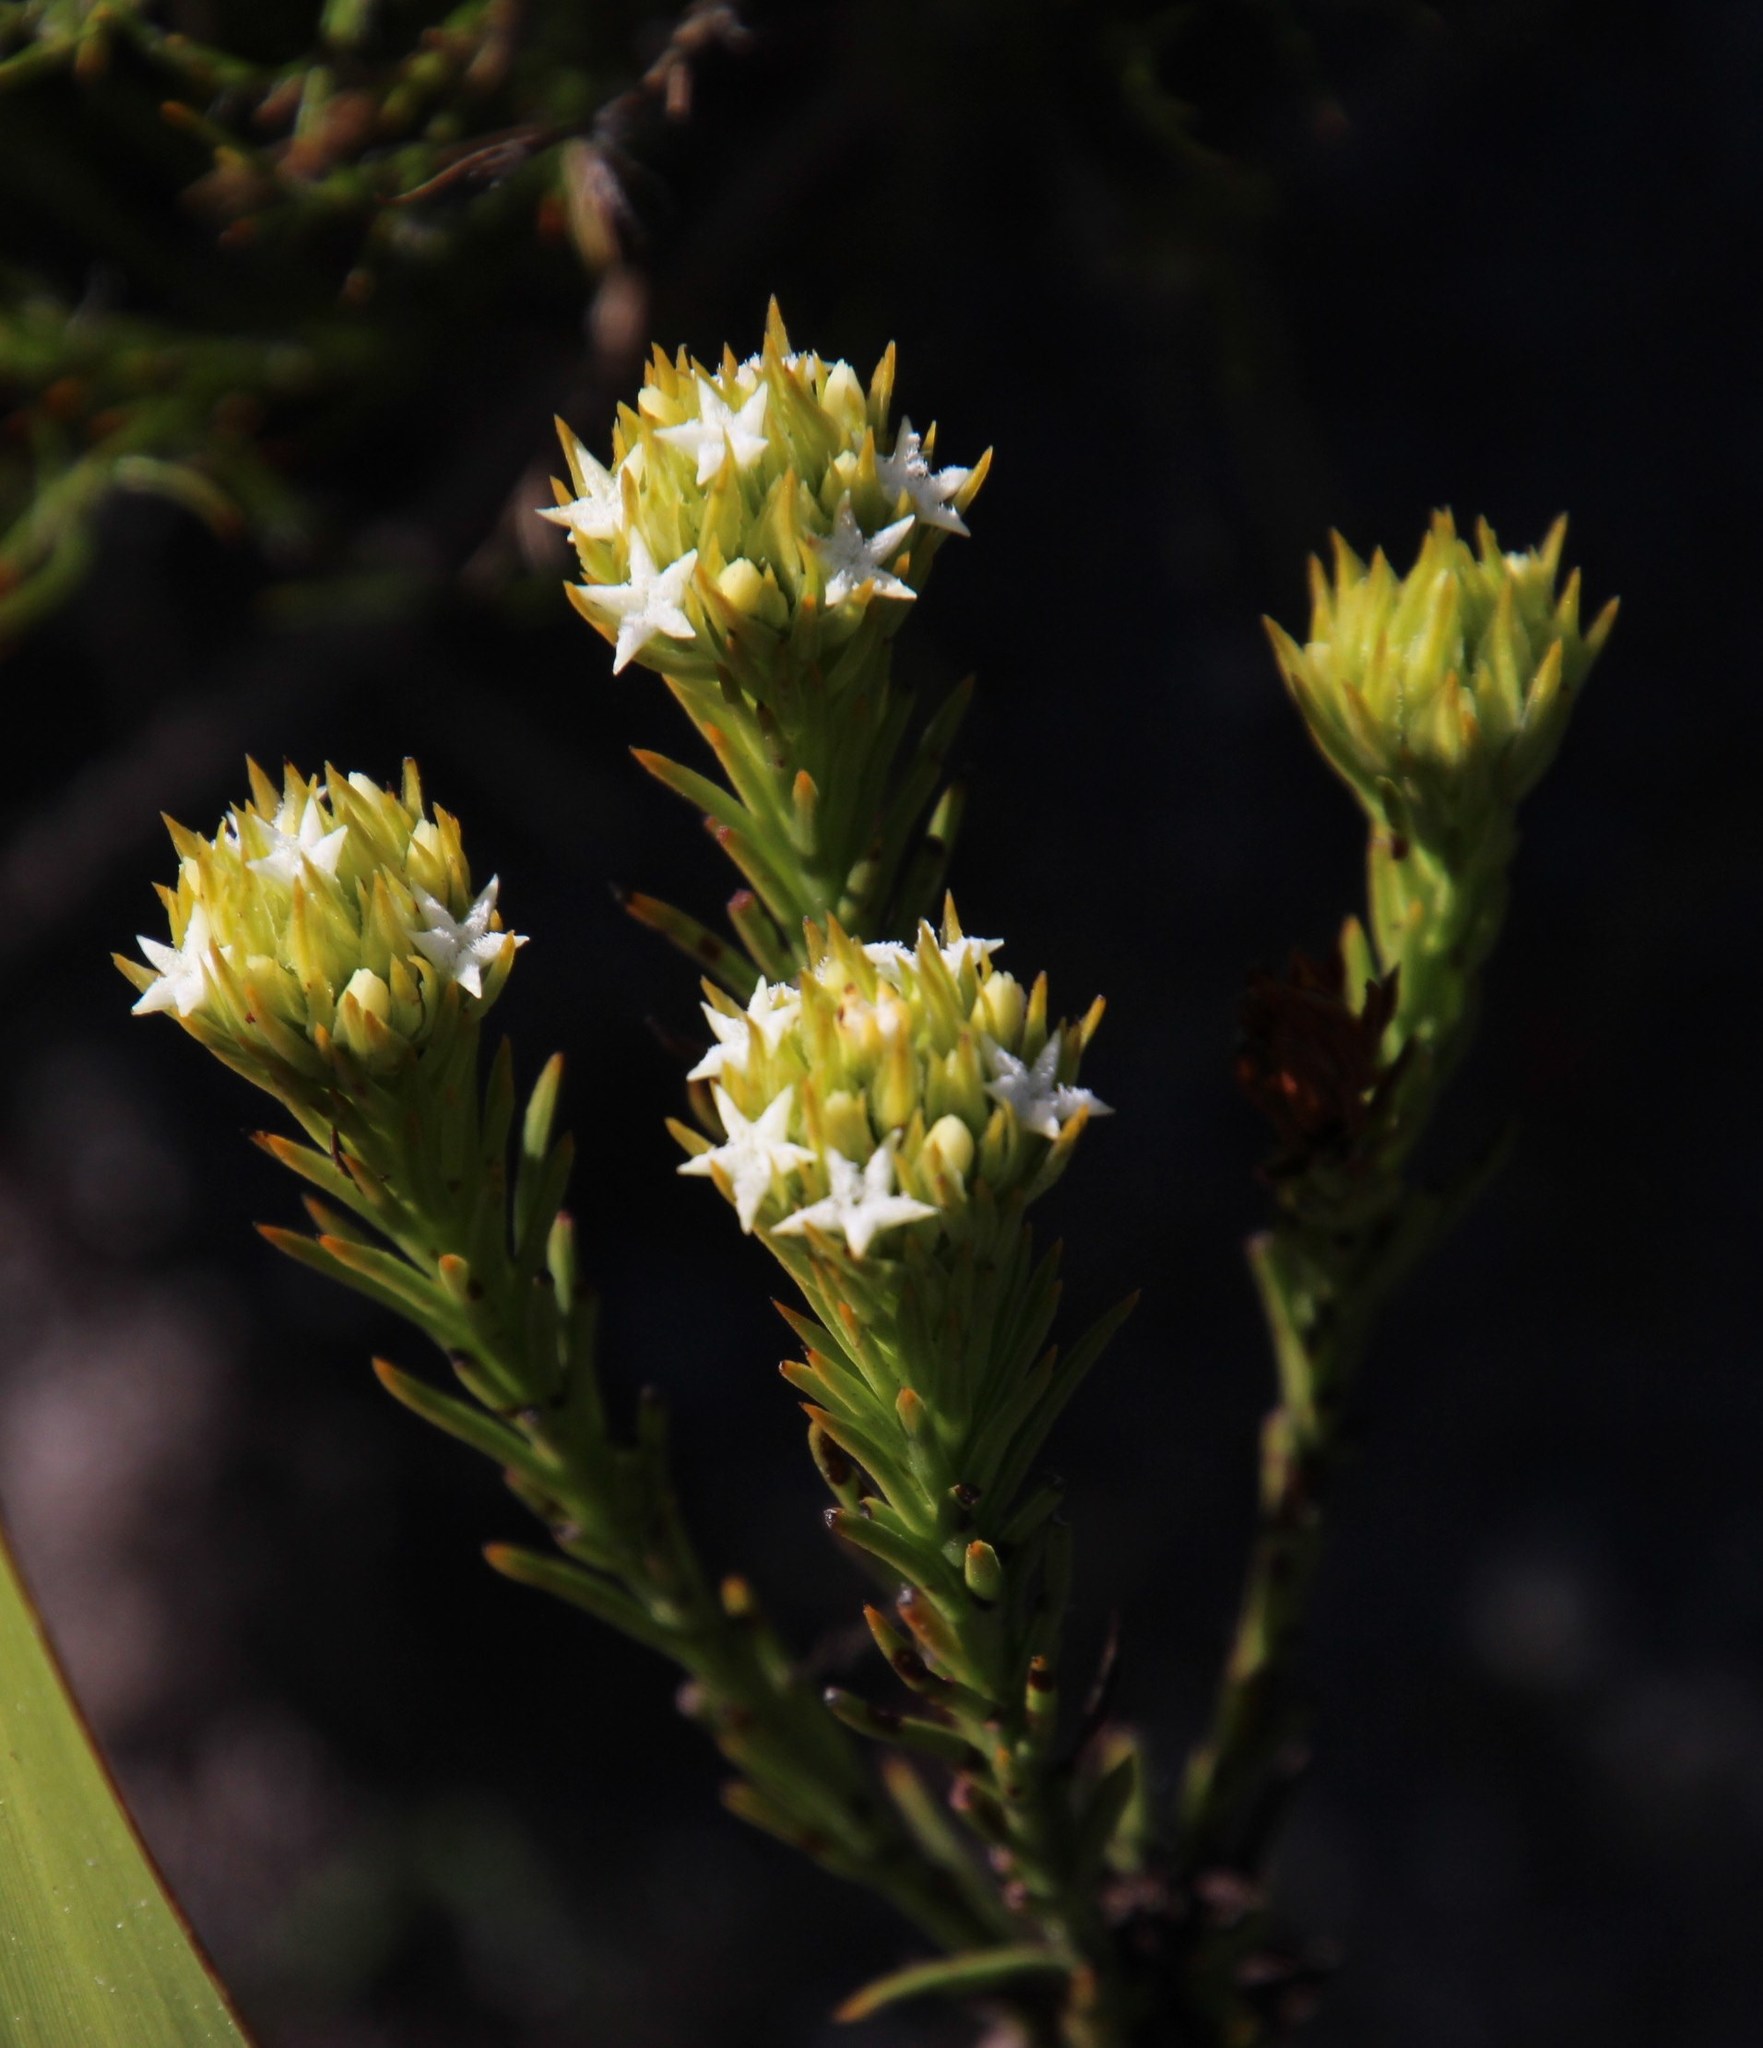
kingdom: Plantae
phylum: Tracheophyta
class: Magnoliopsida
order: Santalales
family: Thesiaceae
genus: Thesium
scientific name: Thesium capitatum
